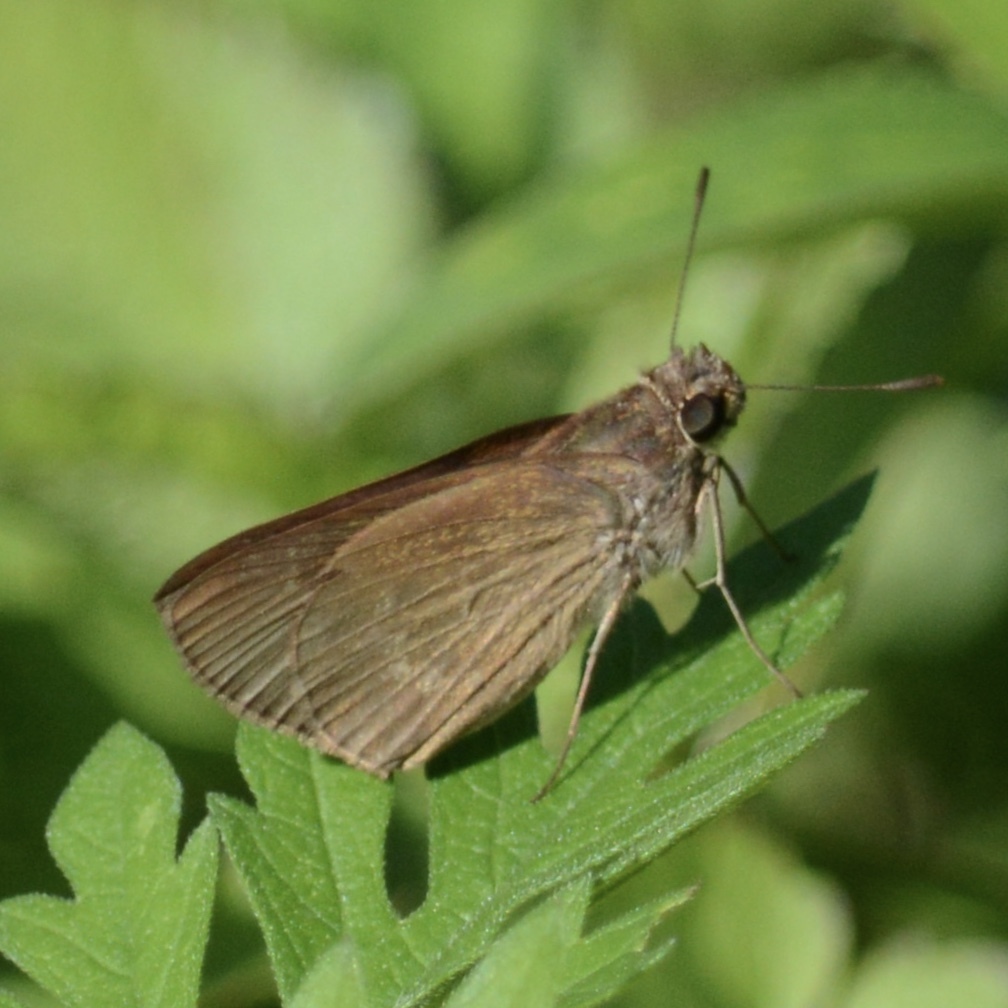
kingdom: Animalia
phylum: Arthropoda
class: Insecta
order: Lepidoptera
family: Hesperiidae
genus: Cymaenes
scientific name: Cymaenes tripunctus
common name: Dingy dotted skipper
